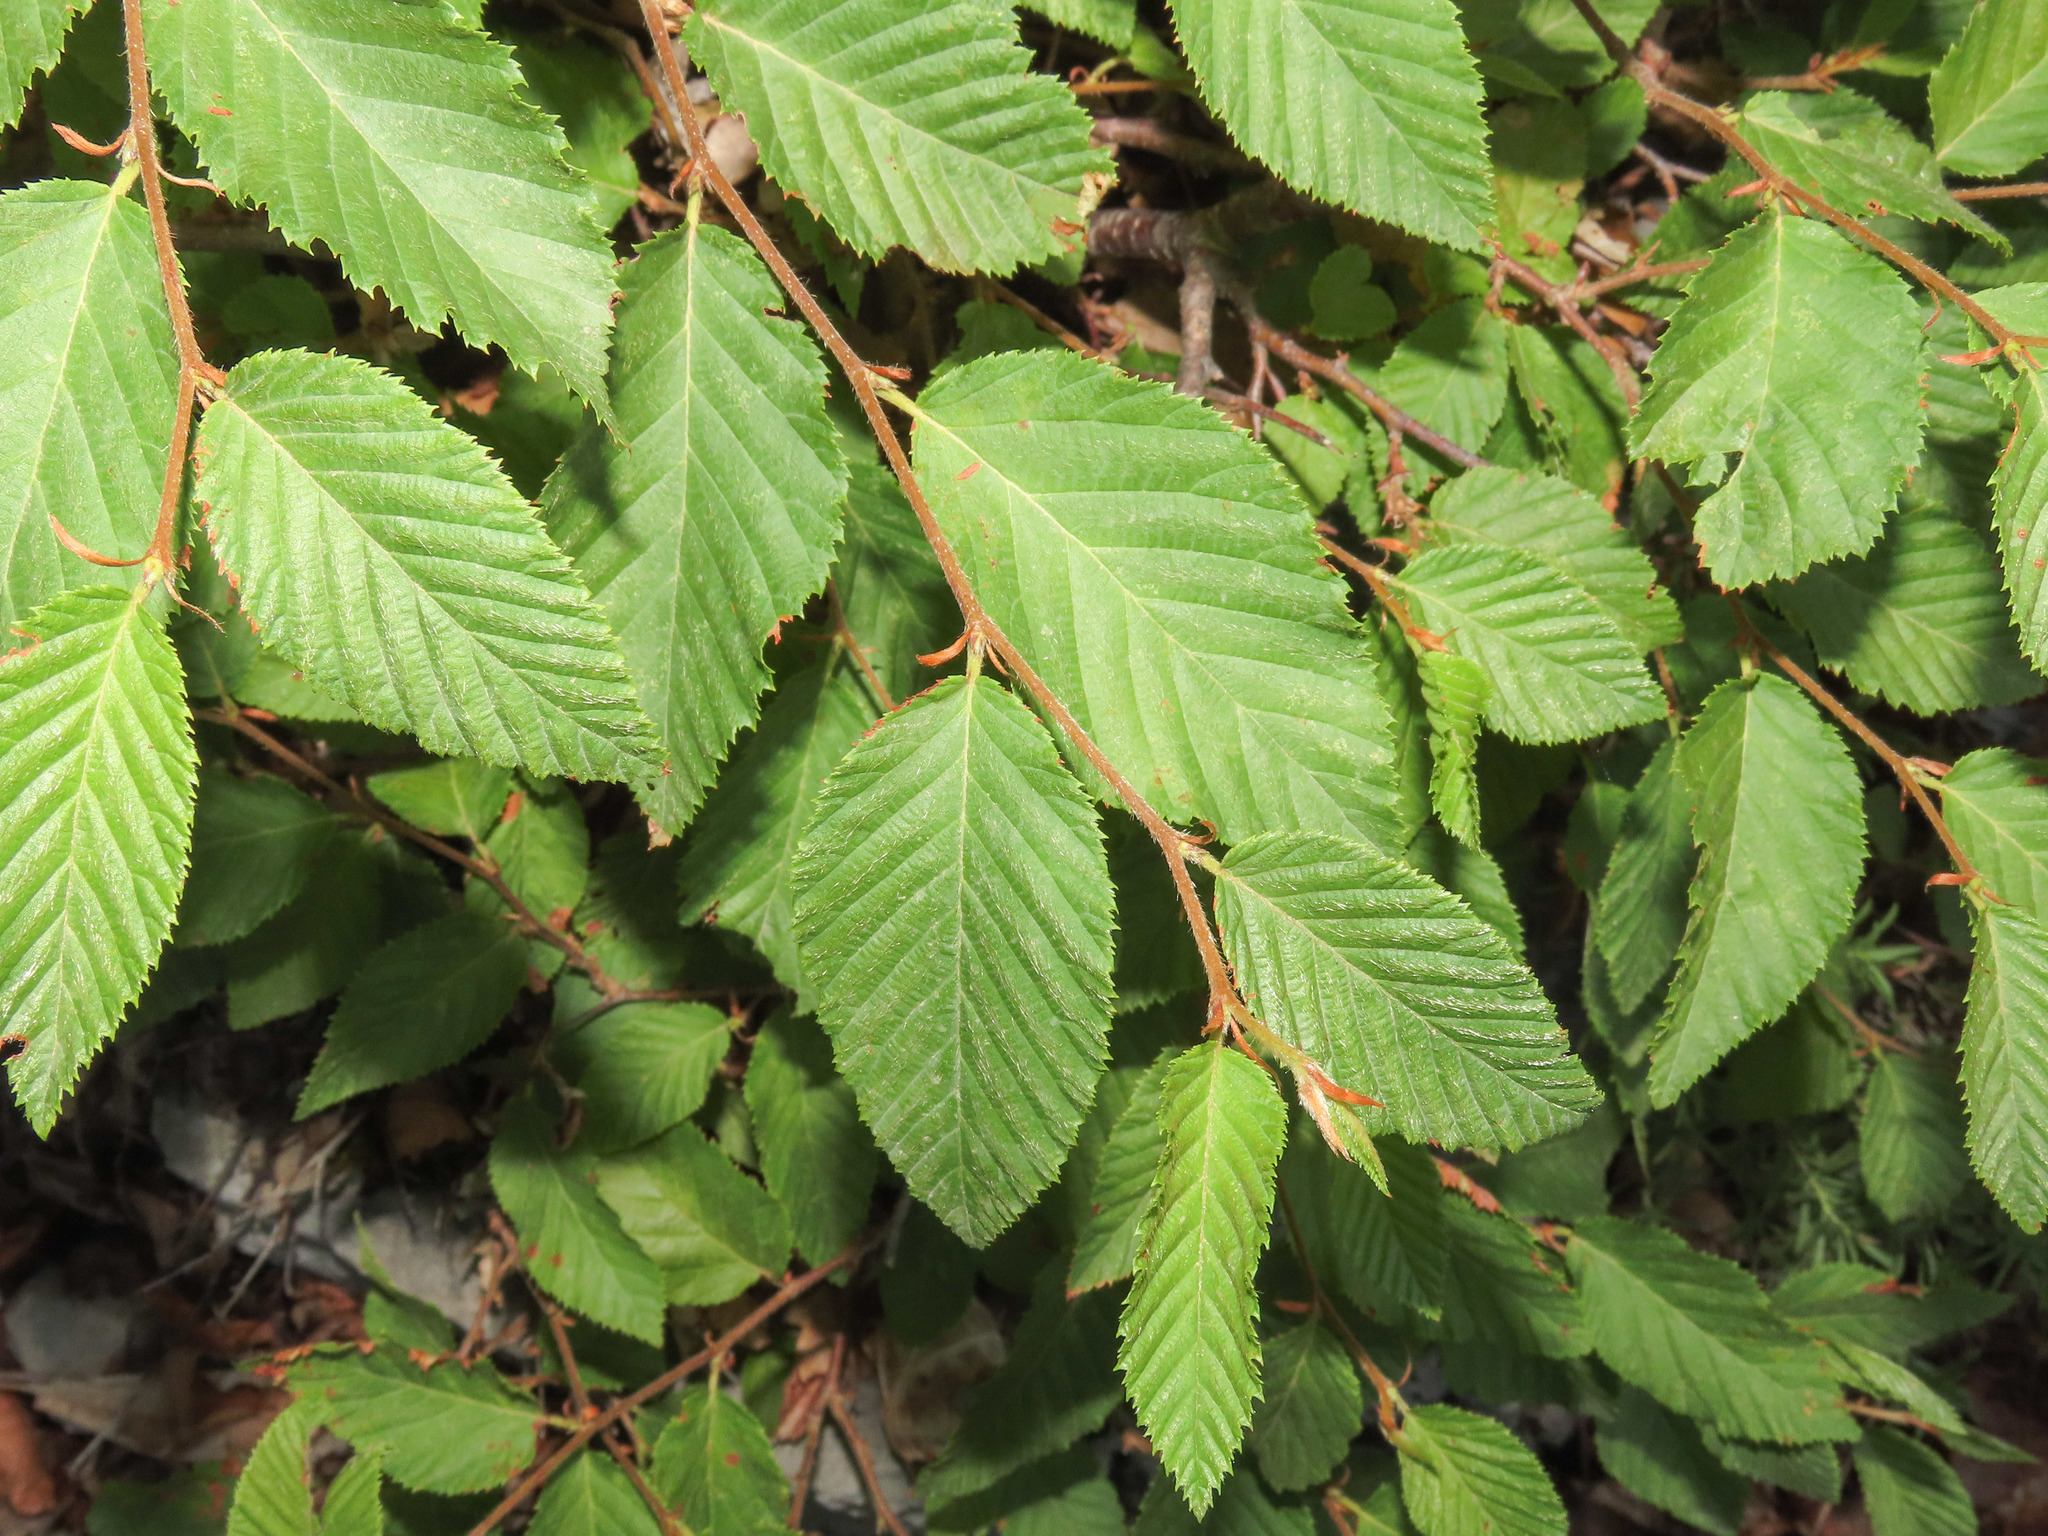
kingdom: Plantae
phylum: Tracheophyta
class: Magnoliopsida
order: Fagales
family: Betulaceae
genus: Ostrya
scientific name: Ostrya carpinifolia
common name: European hop-hornbeam
